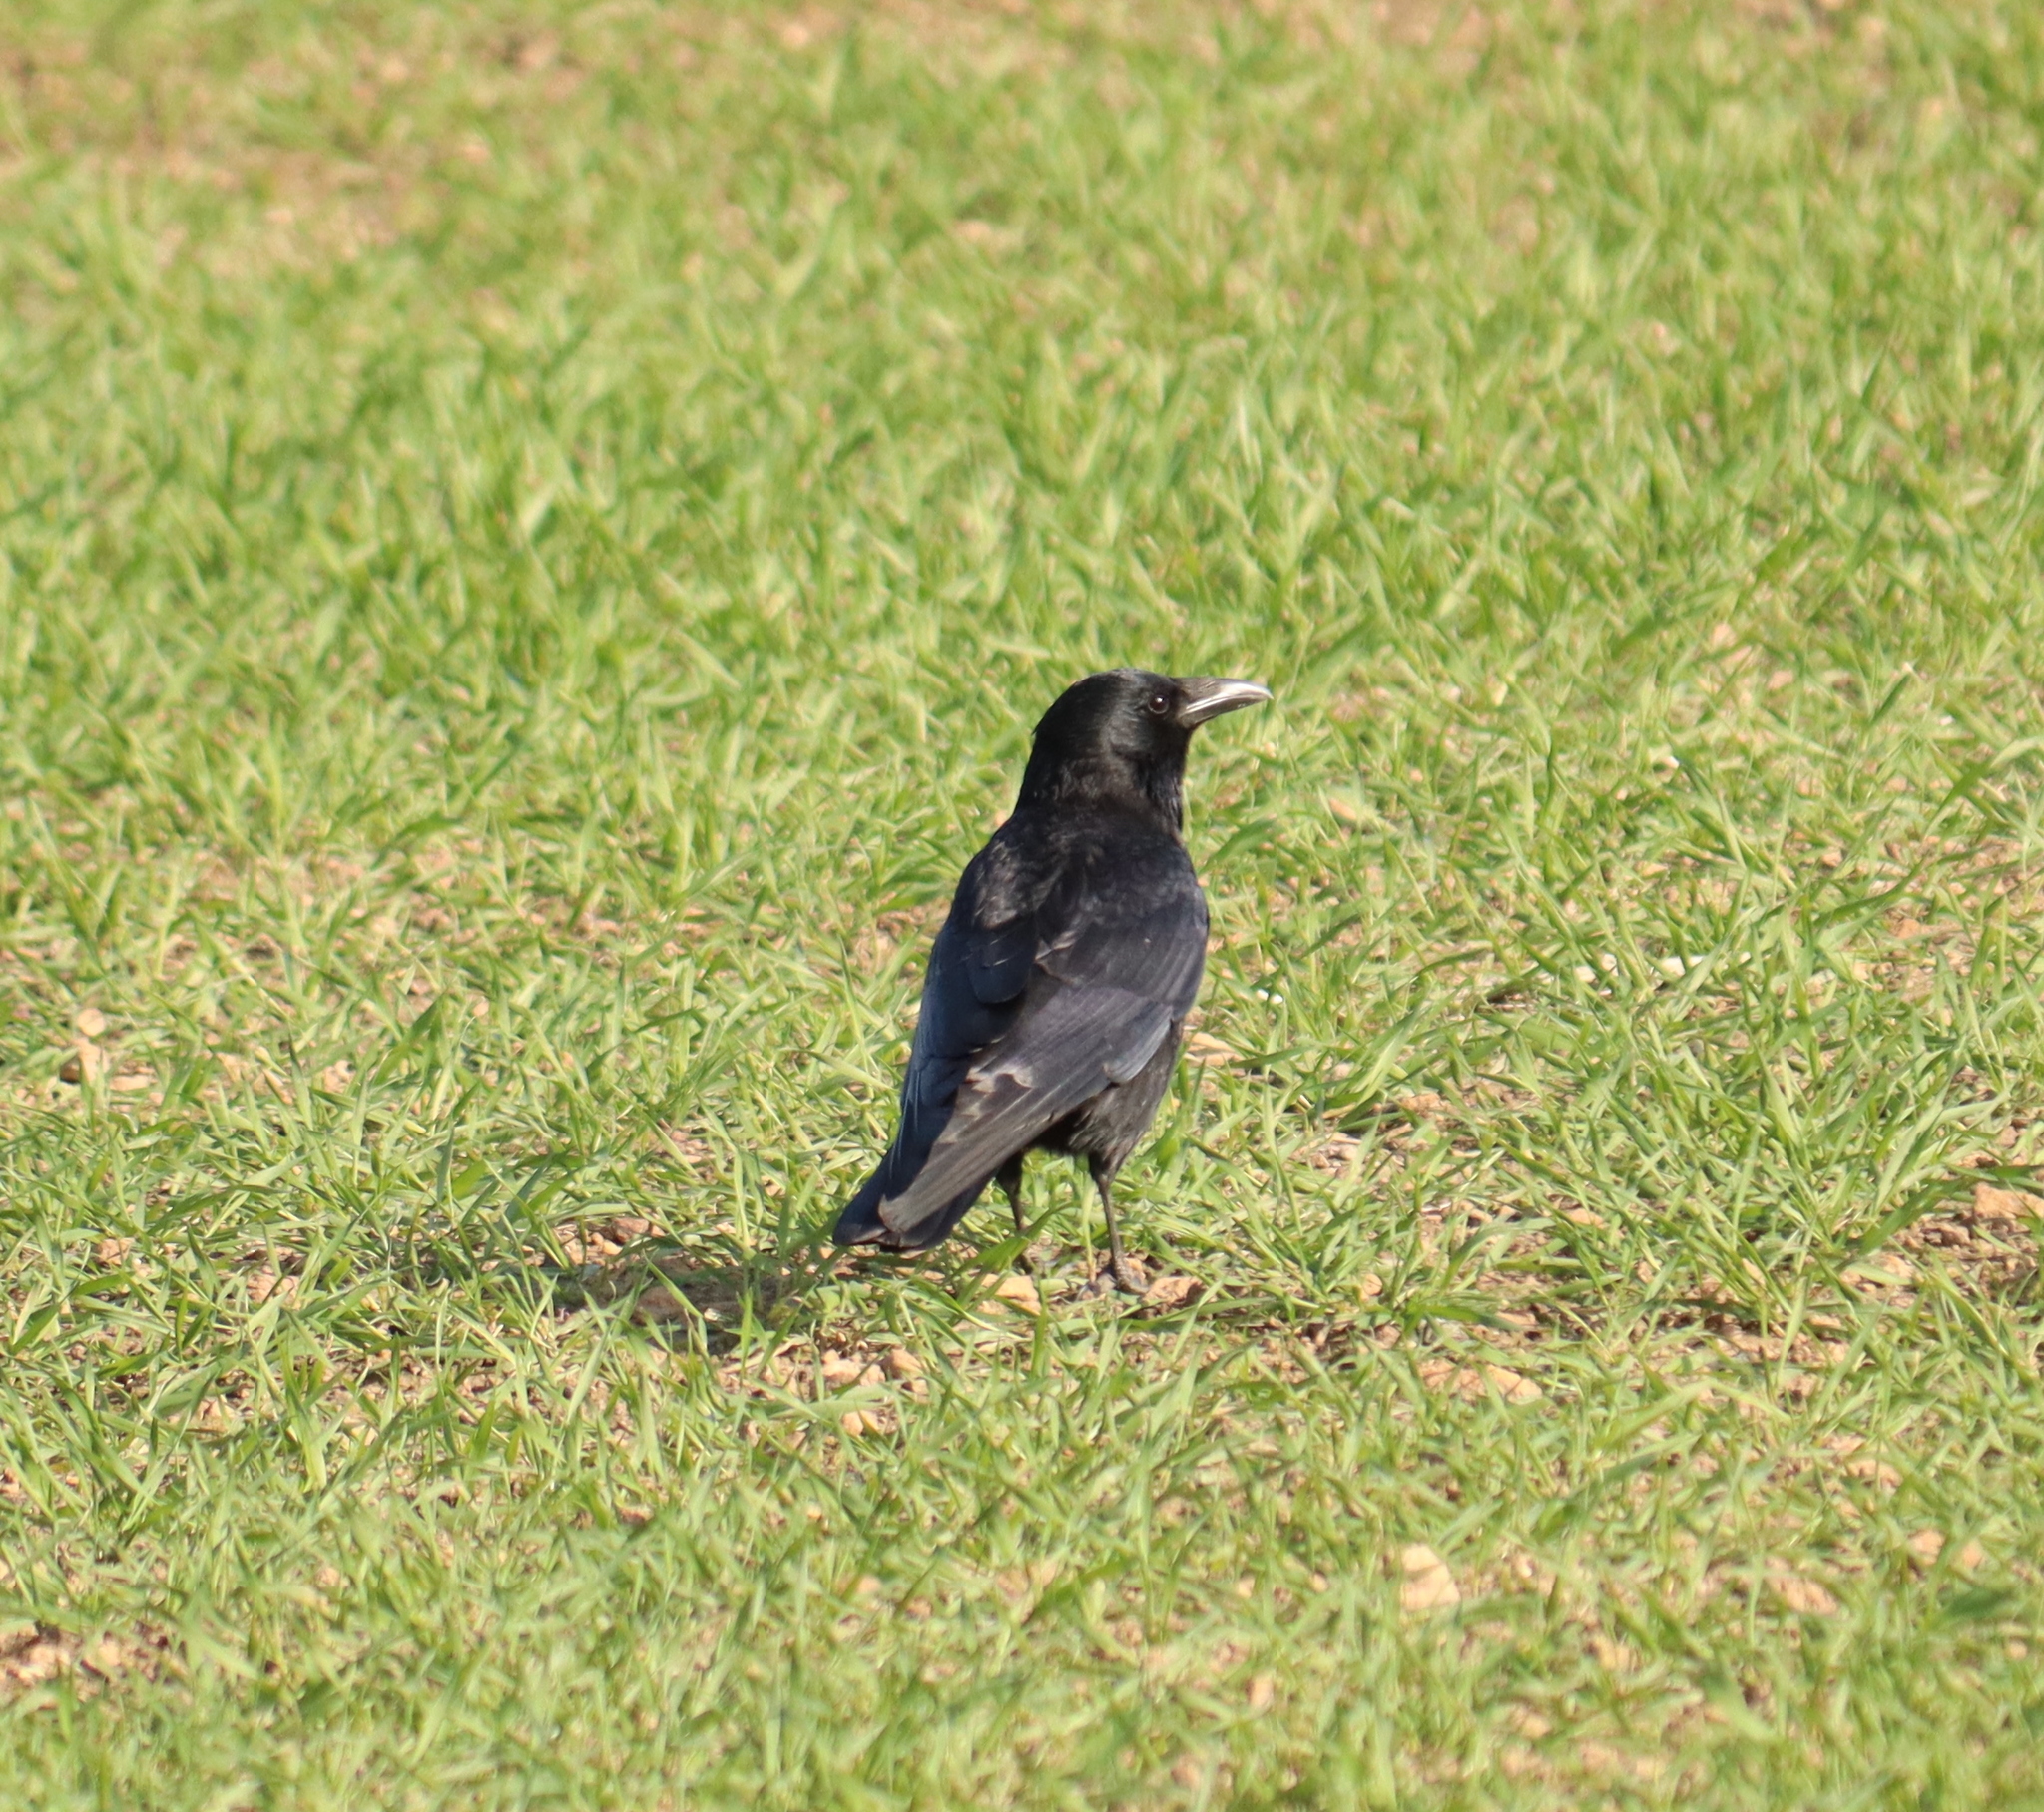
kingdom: Animalia
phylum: Chordata
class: Aves
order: Passeriformes
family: Corvidae
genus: Corvus
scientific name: Corvus corone
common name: Carrion crow
